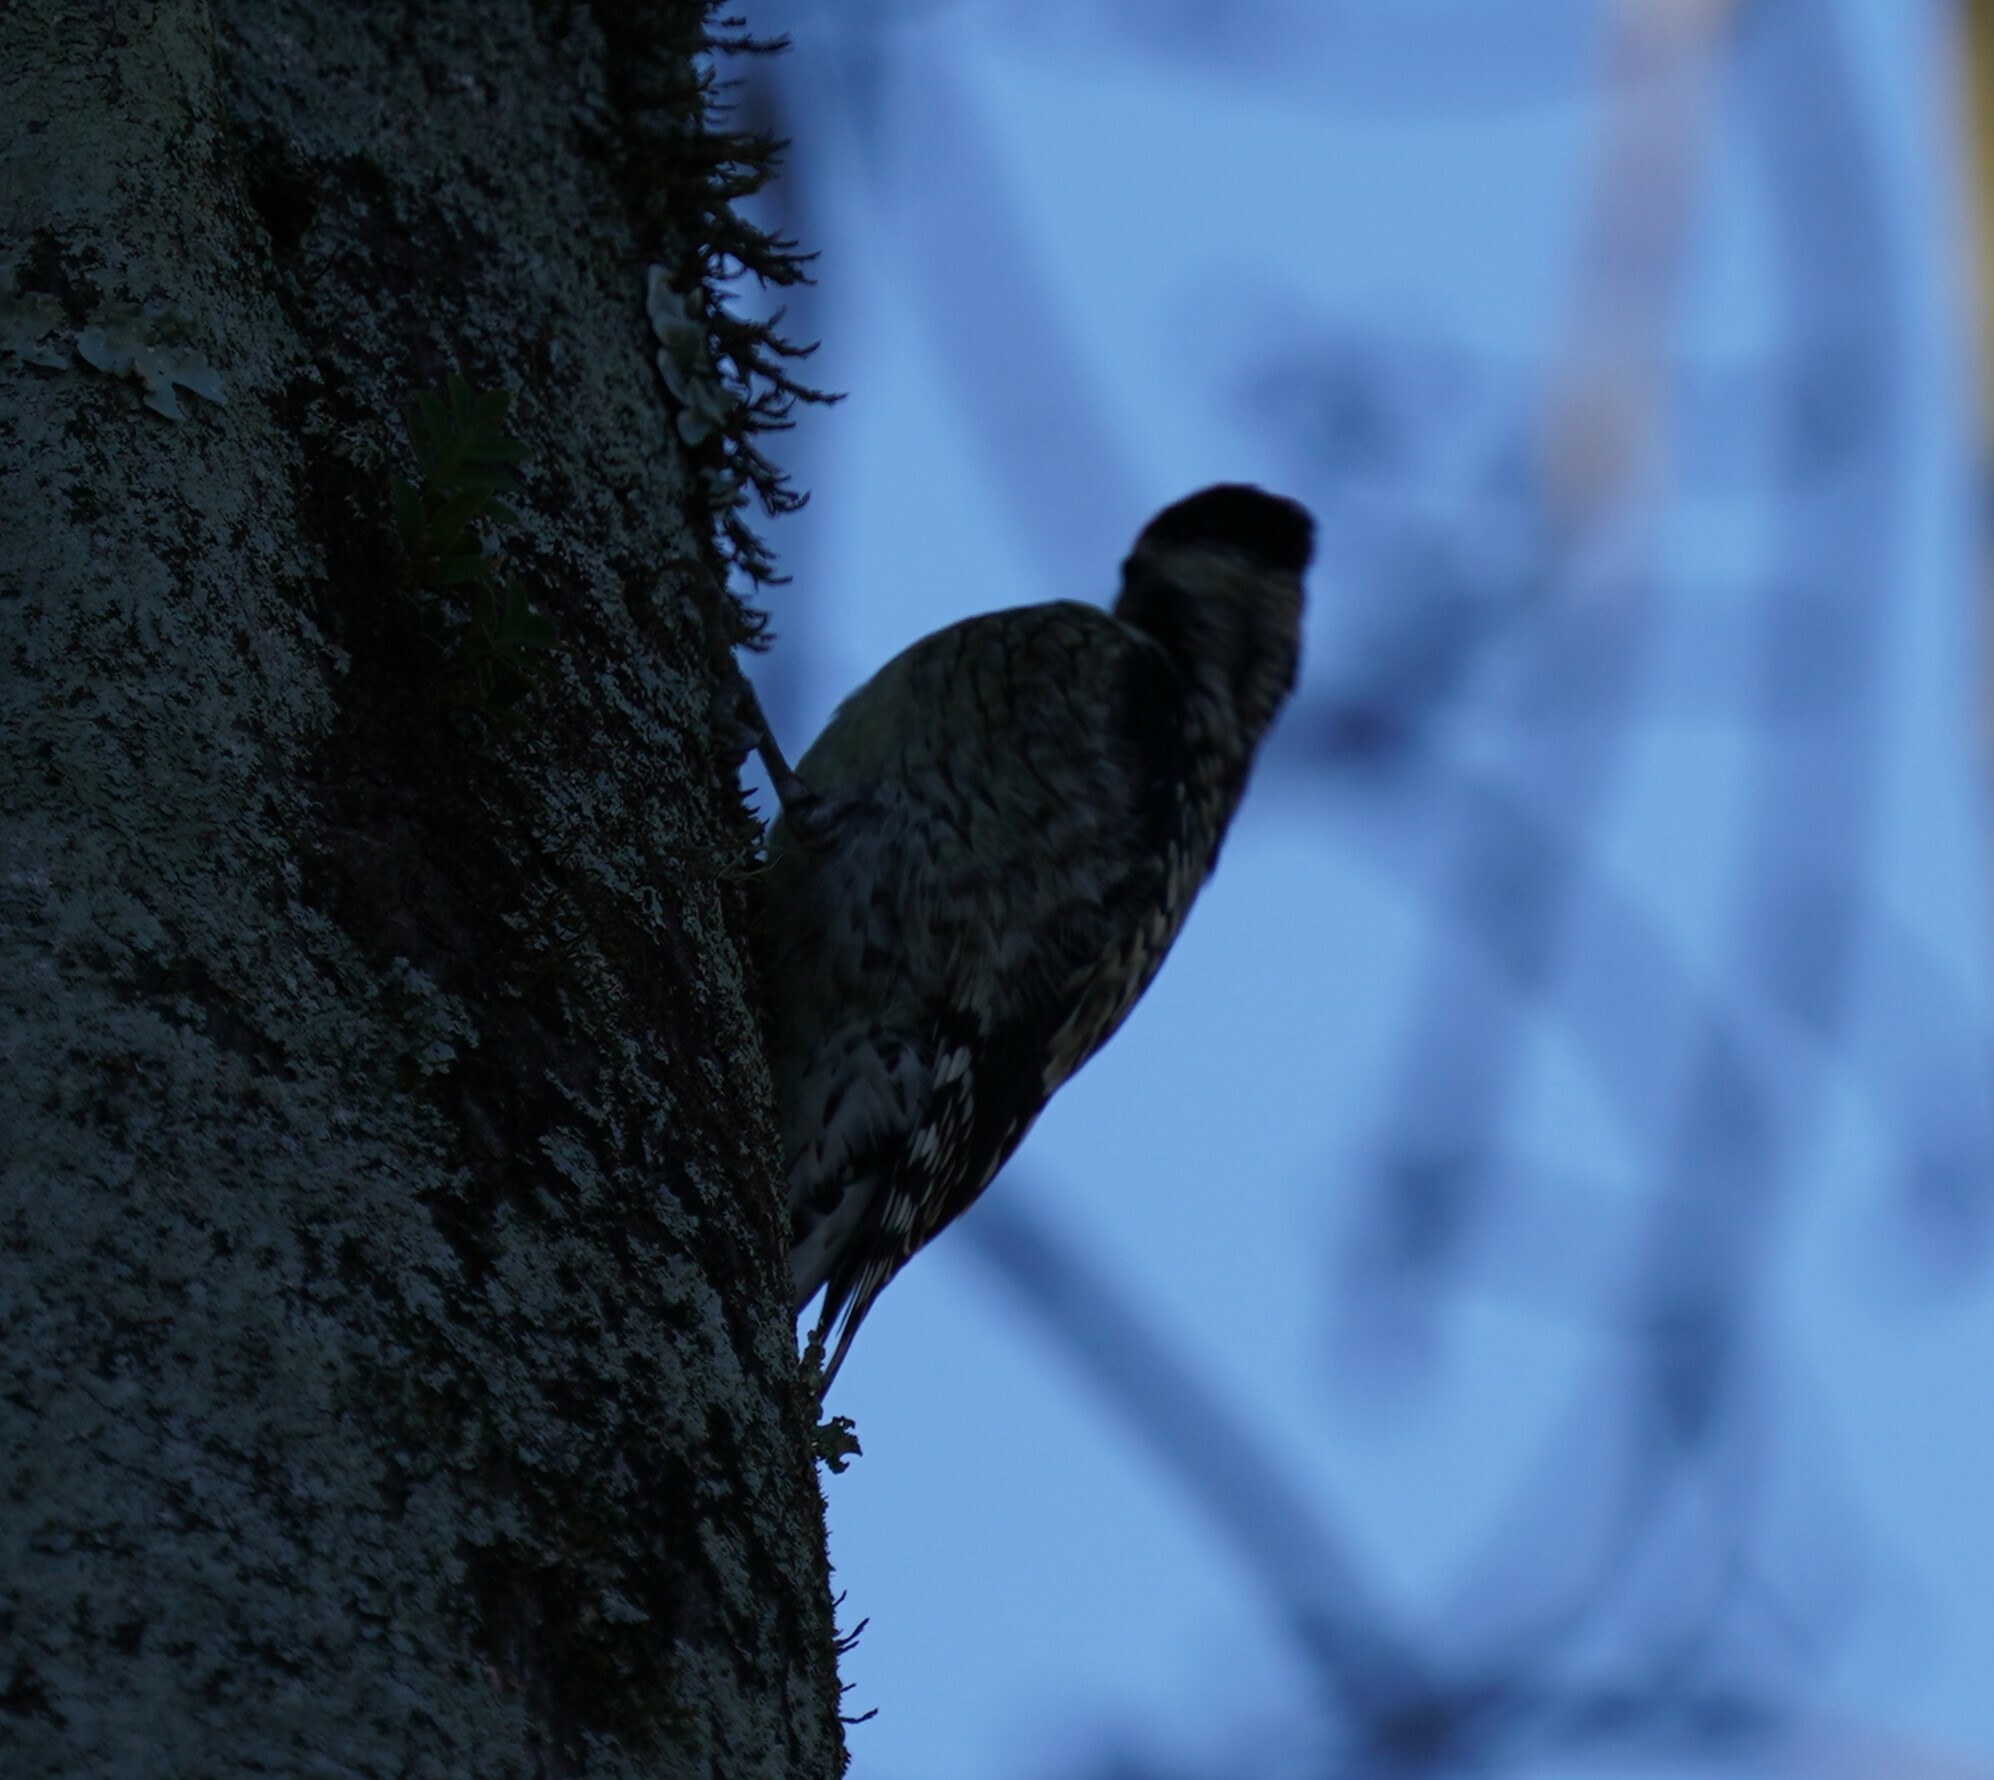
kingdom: Animalia
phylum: Chordata
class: Aves
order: Piciformes
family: Picidae
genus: Sphyrapicus
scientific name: Sphyrapicus varius
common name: Yellow-bellied sapsucker
